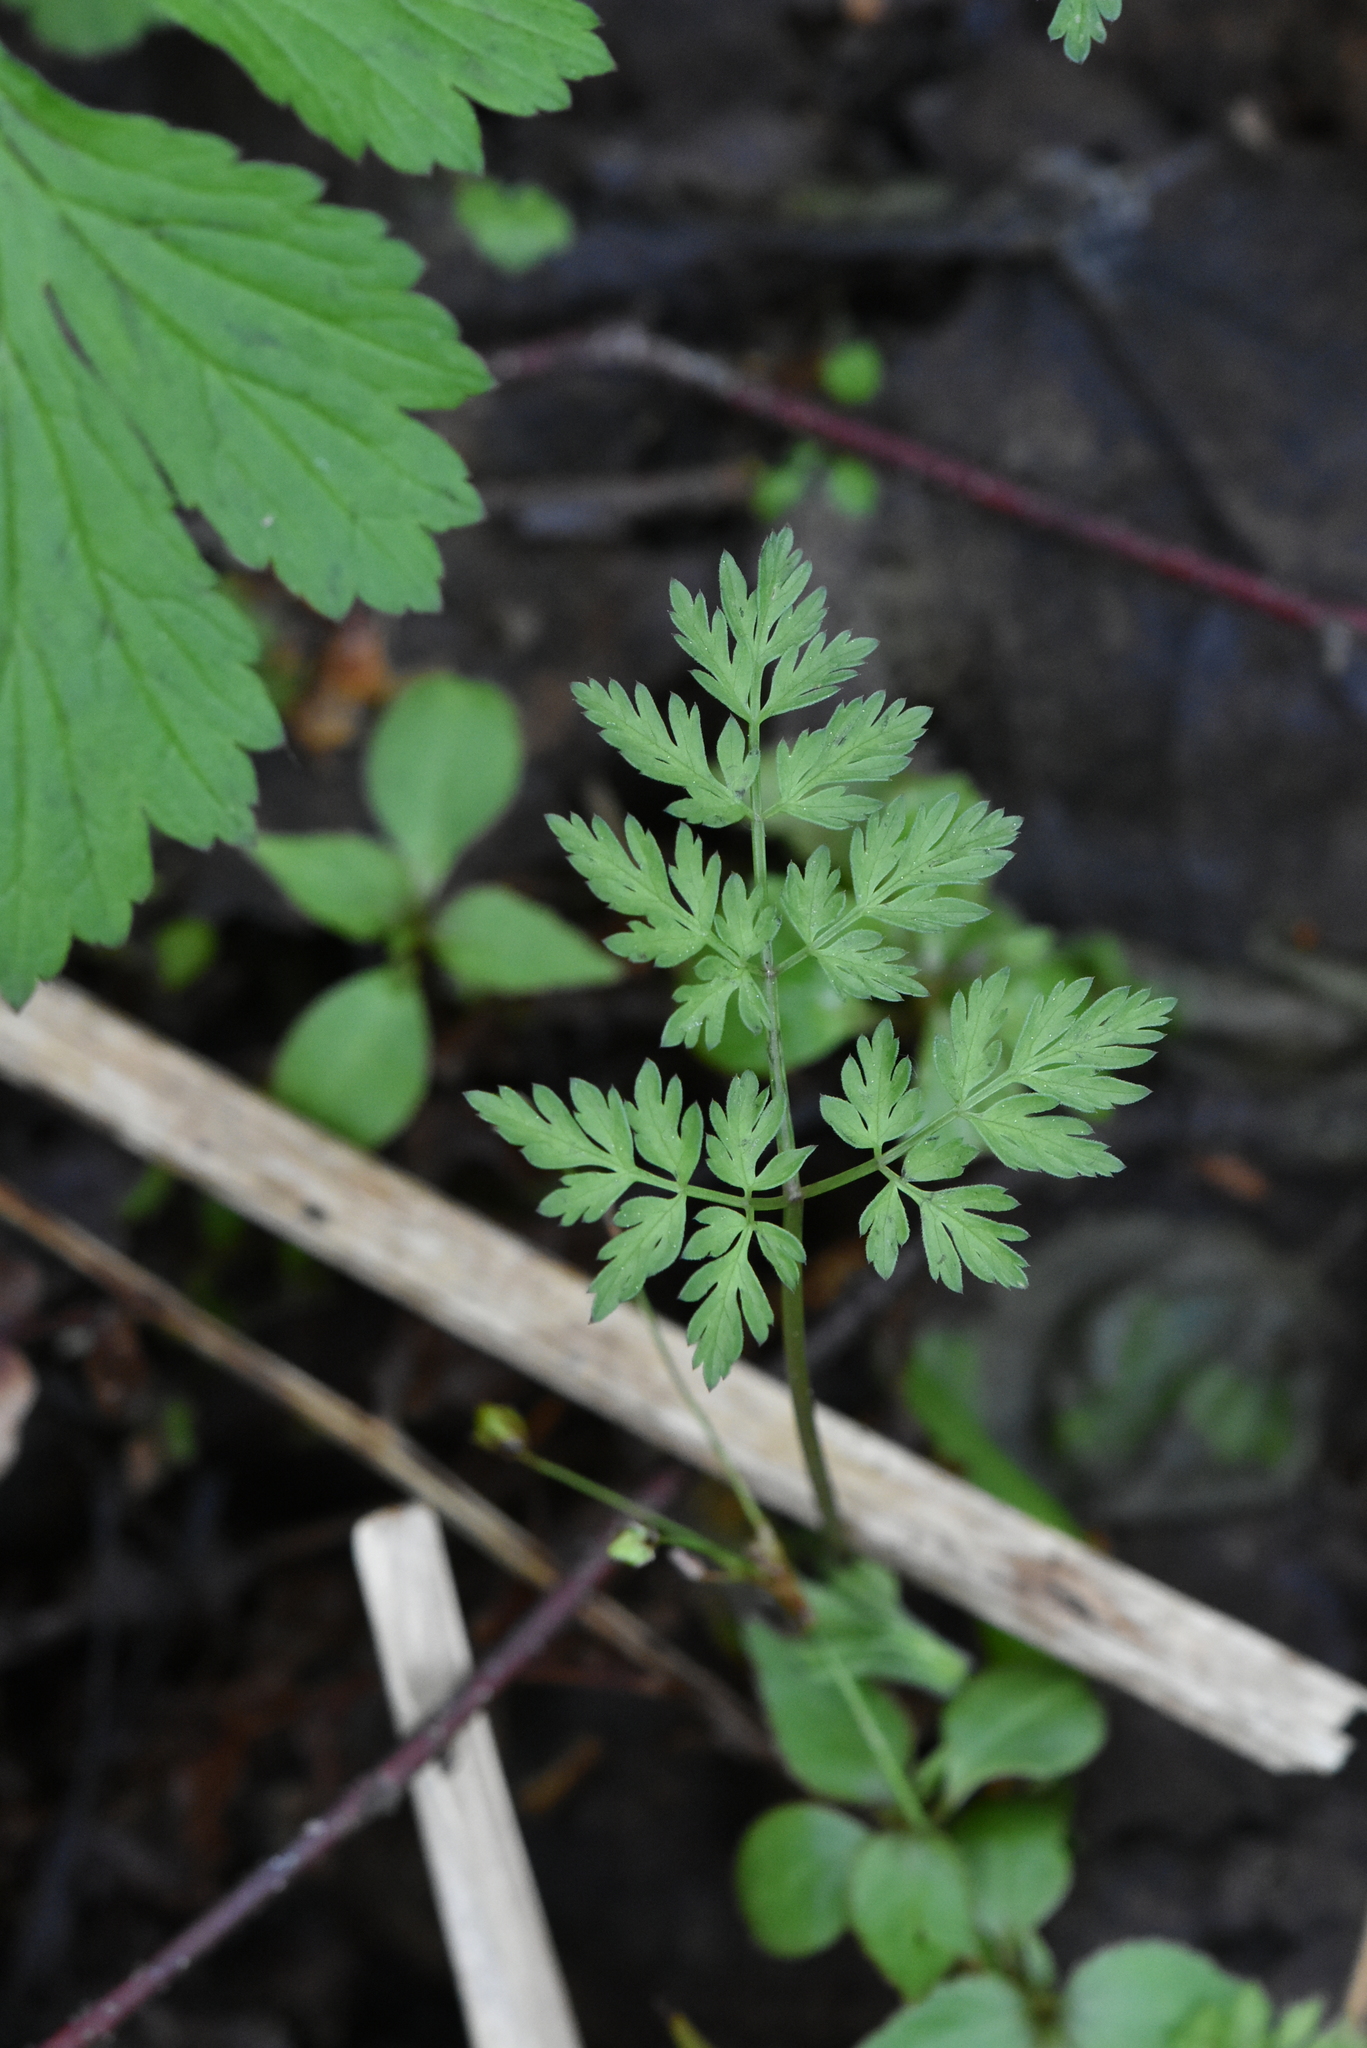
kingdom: Plantae
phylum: Tracheophyta
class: Magnoliopsida
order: Apiales
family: Apiaceae
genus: Anthriscus
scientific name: Anthriscus sylvestris
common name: Cow parsley
